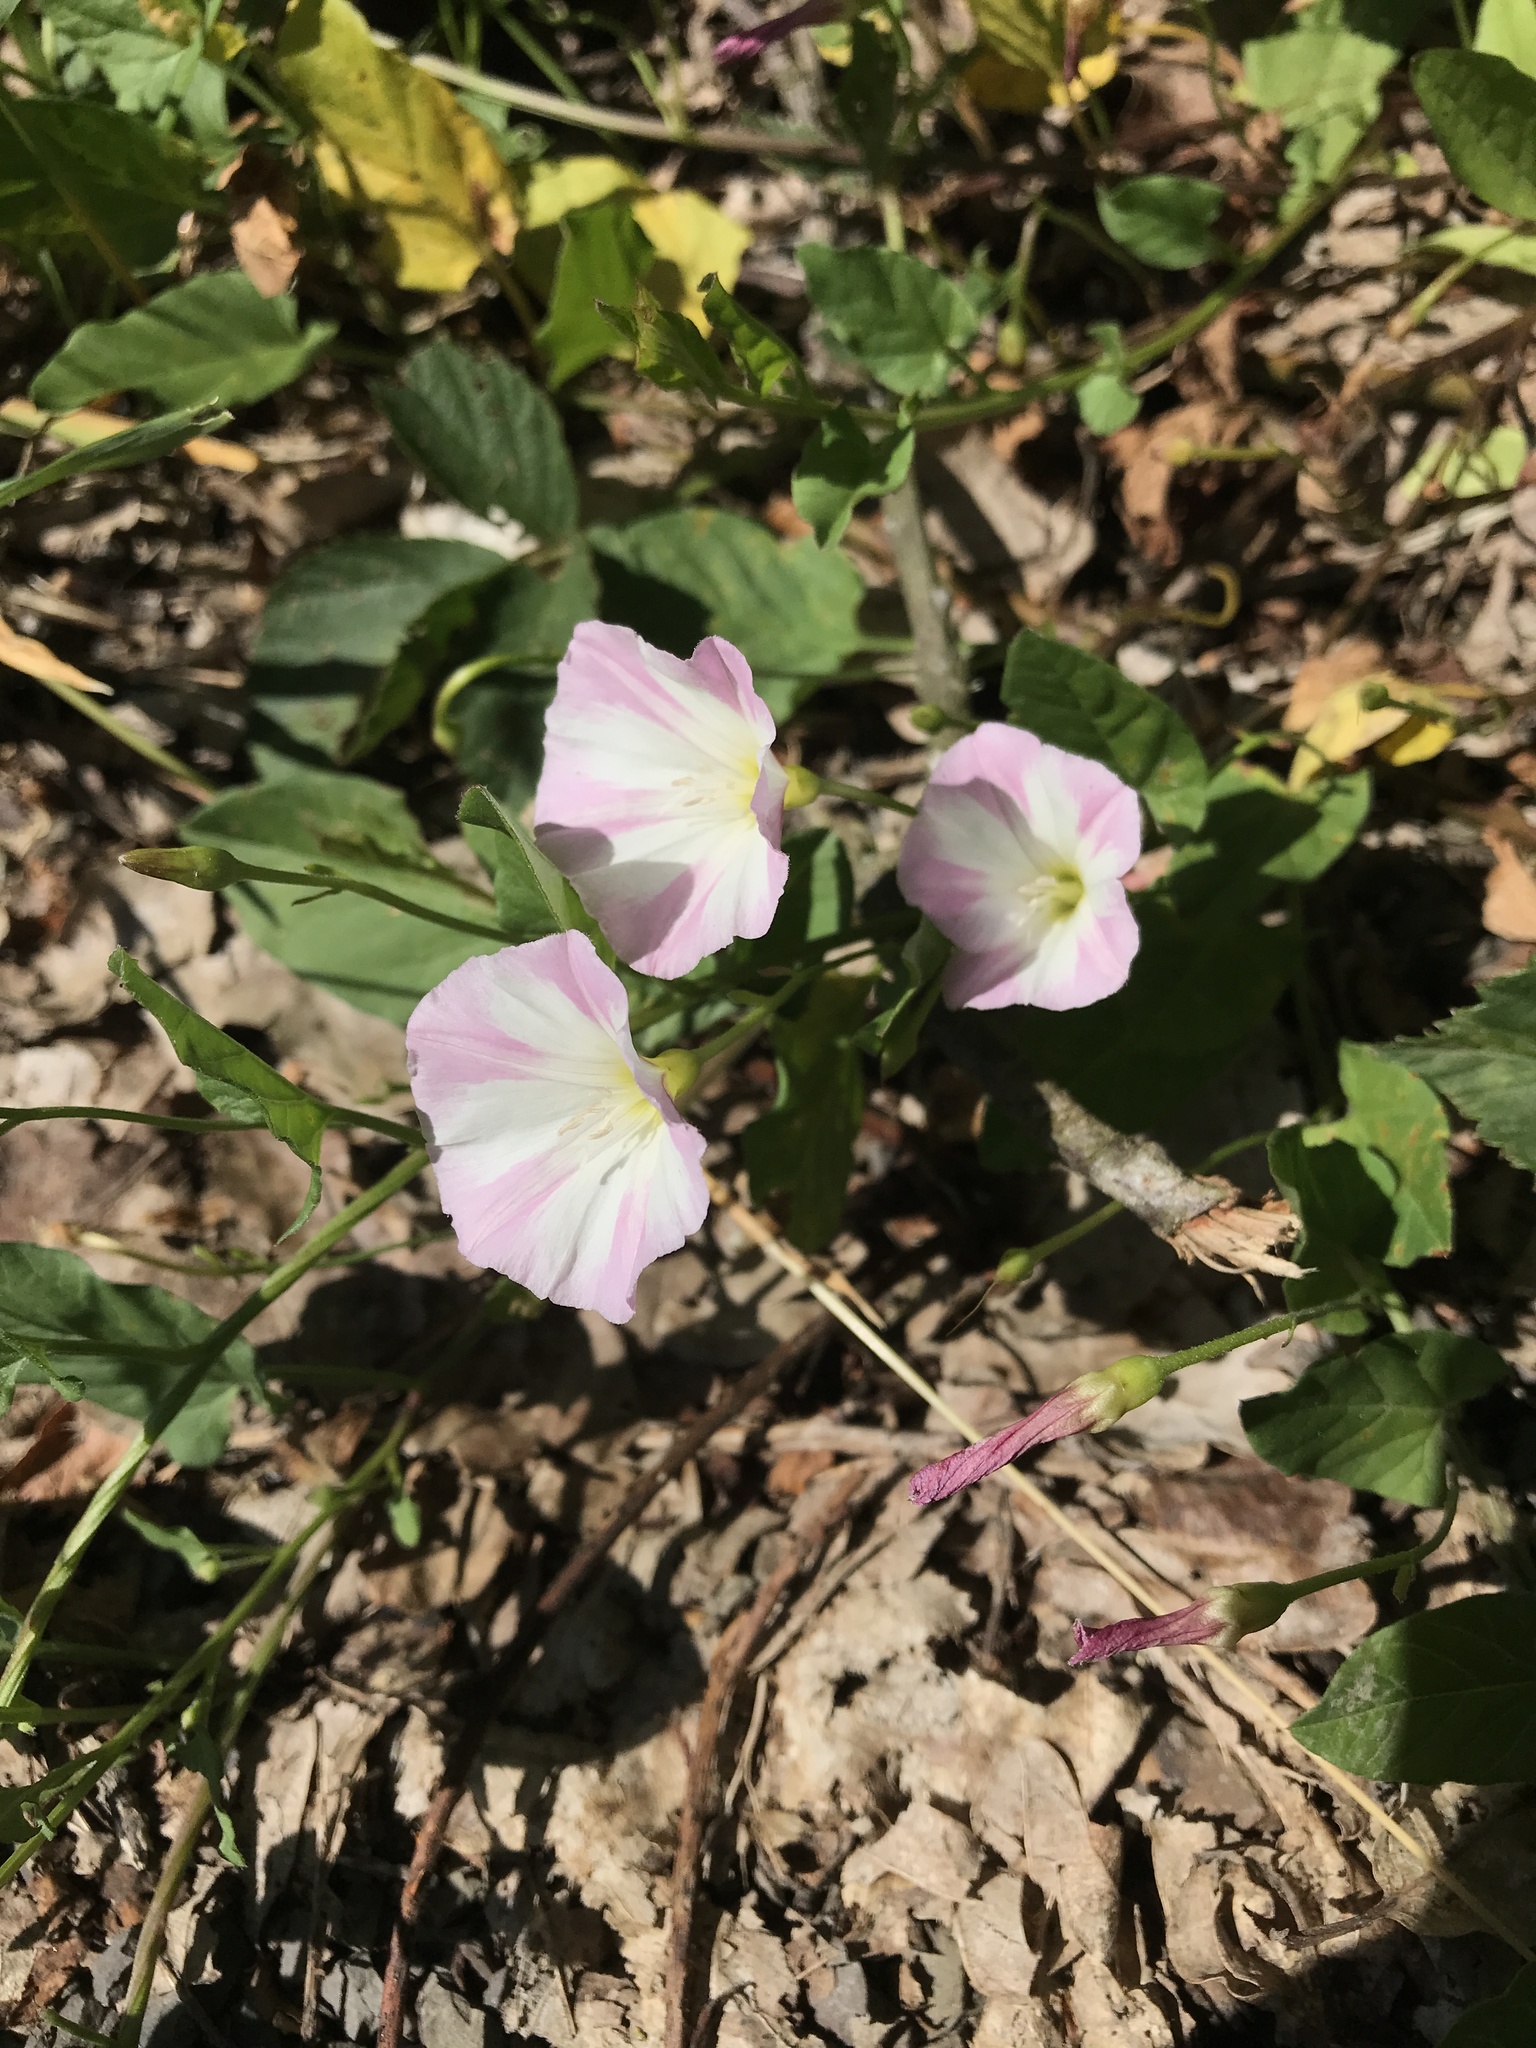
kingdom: Plantae
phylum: Tracheophyta
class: Magnoliopsida
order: Solanales
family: Convolvulaceae
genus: Convolvulus
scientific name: Convolvulus arvensis
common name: Field bindweed
